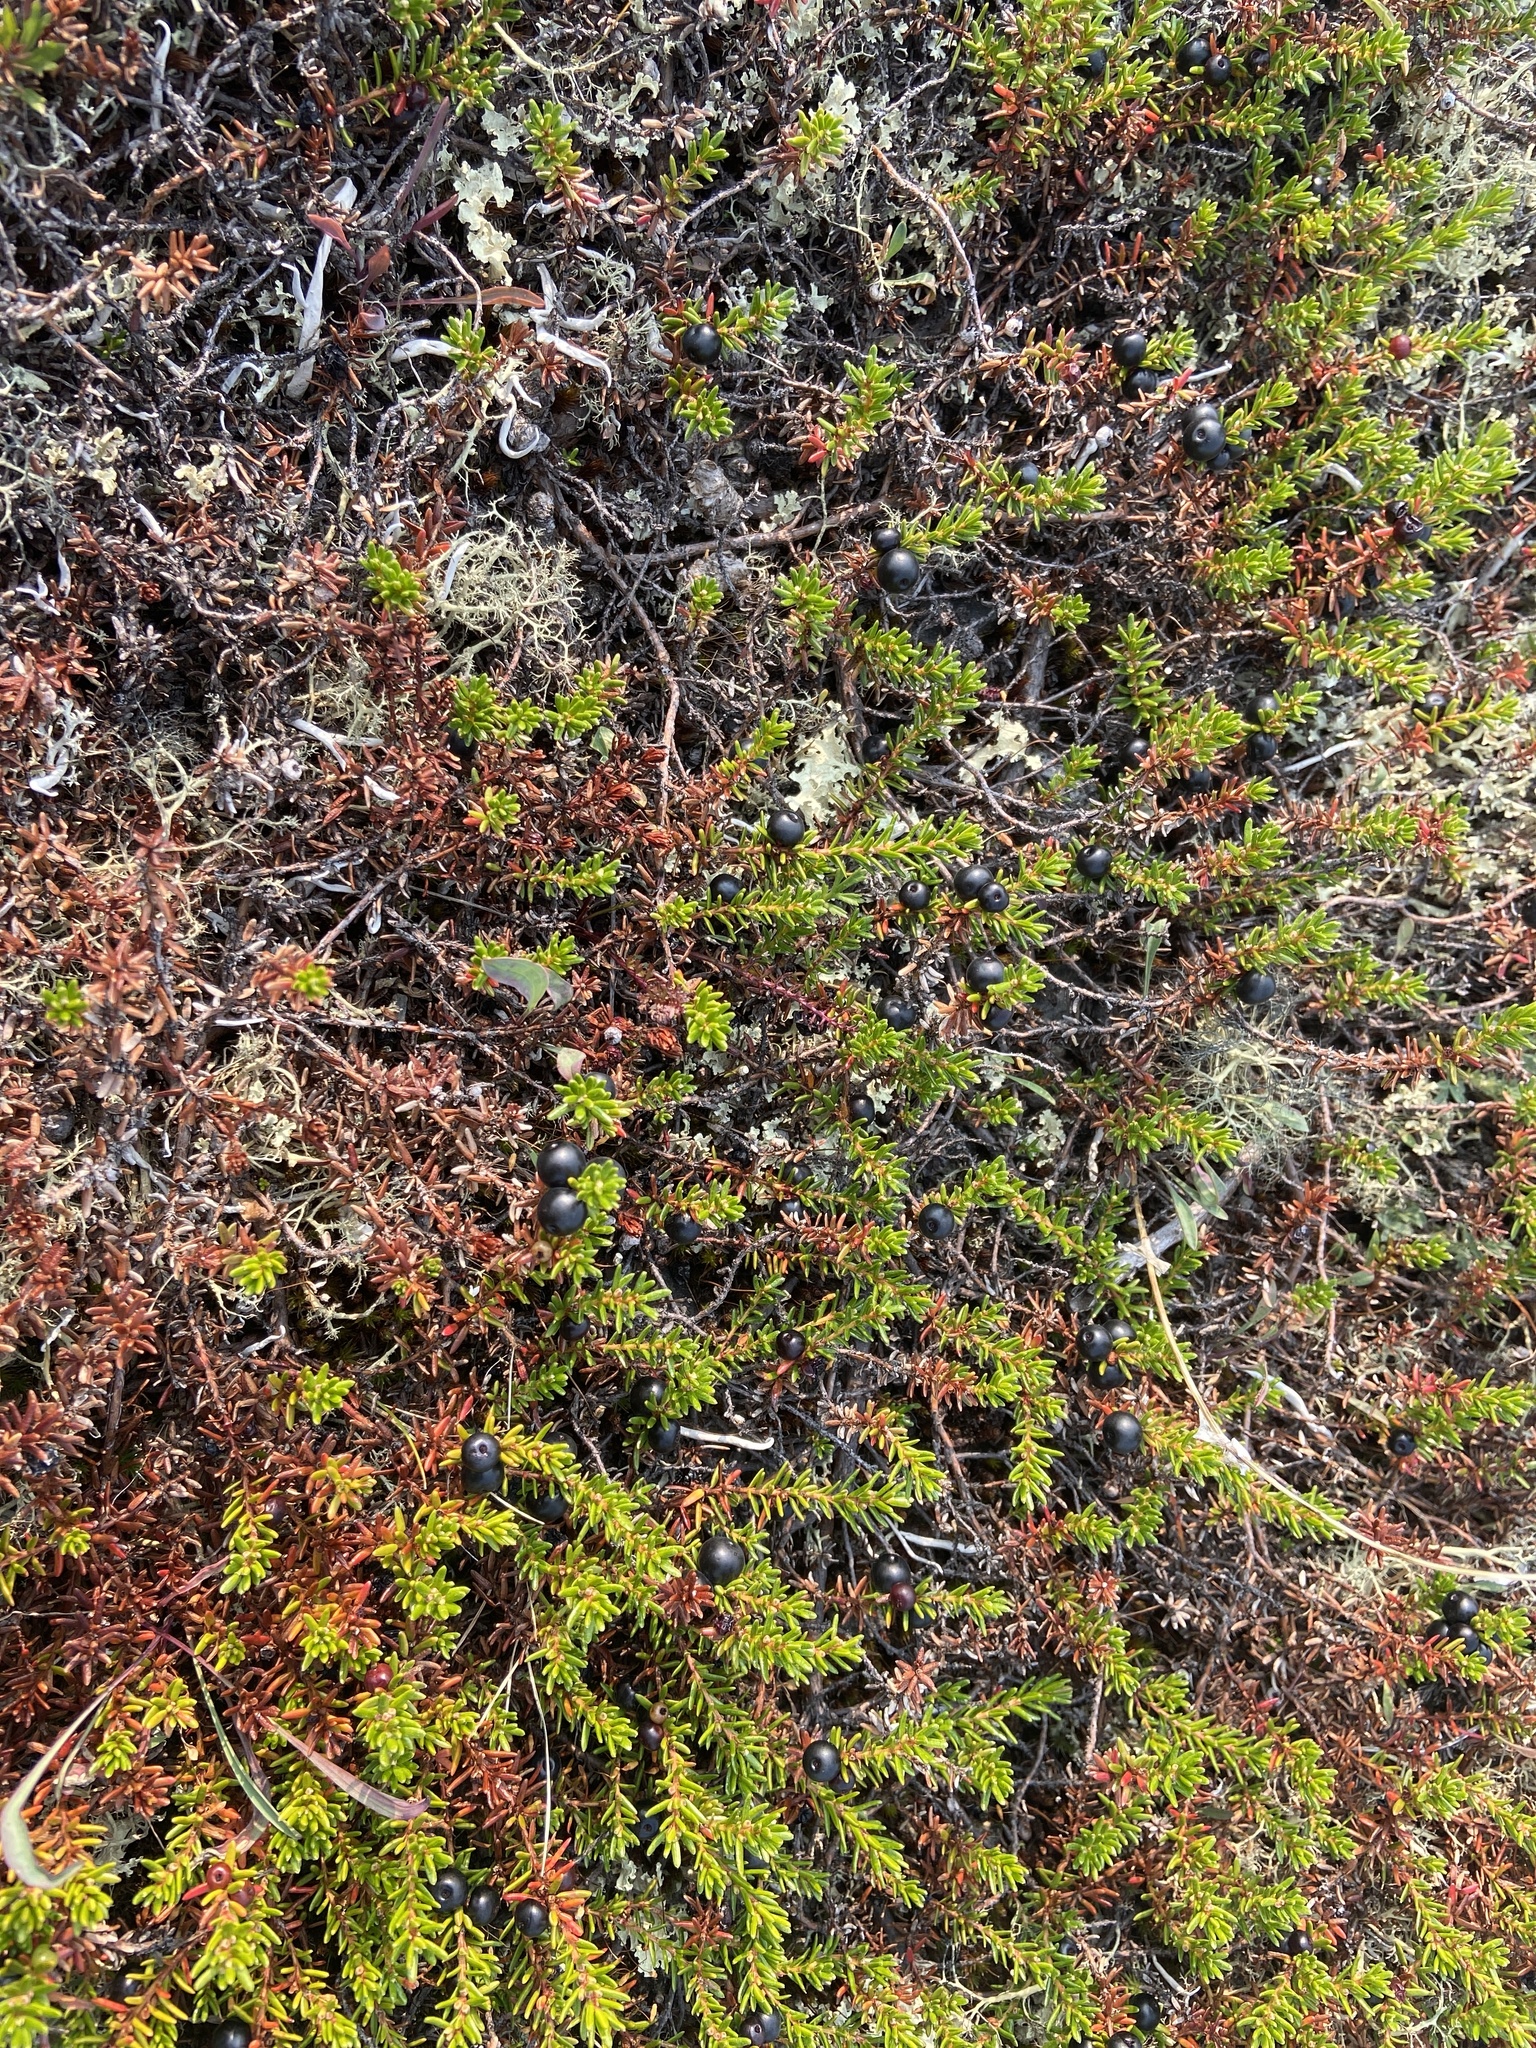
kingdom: Plantae
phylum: Tracheophyta
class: Magnoliopsida
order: Ericales
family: Ericaceae
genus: Empetrum
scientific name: Empetrum nigrum
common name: Black crowberry
